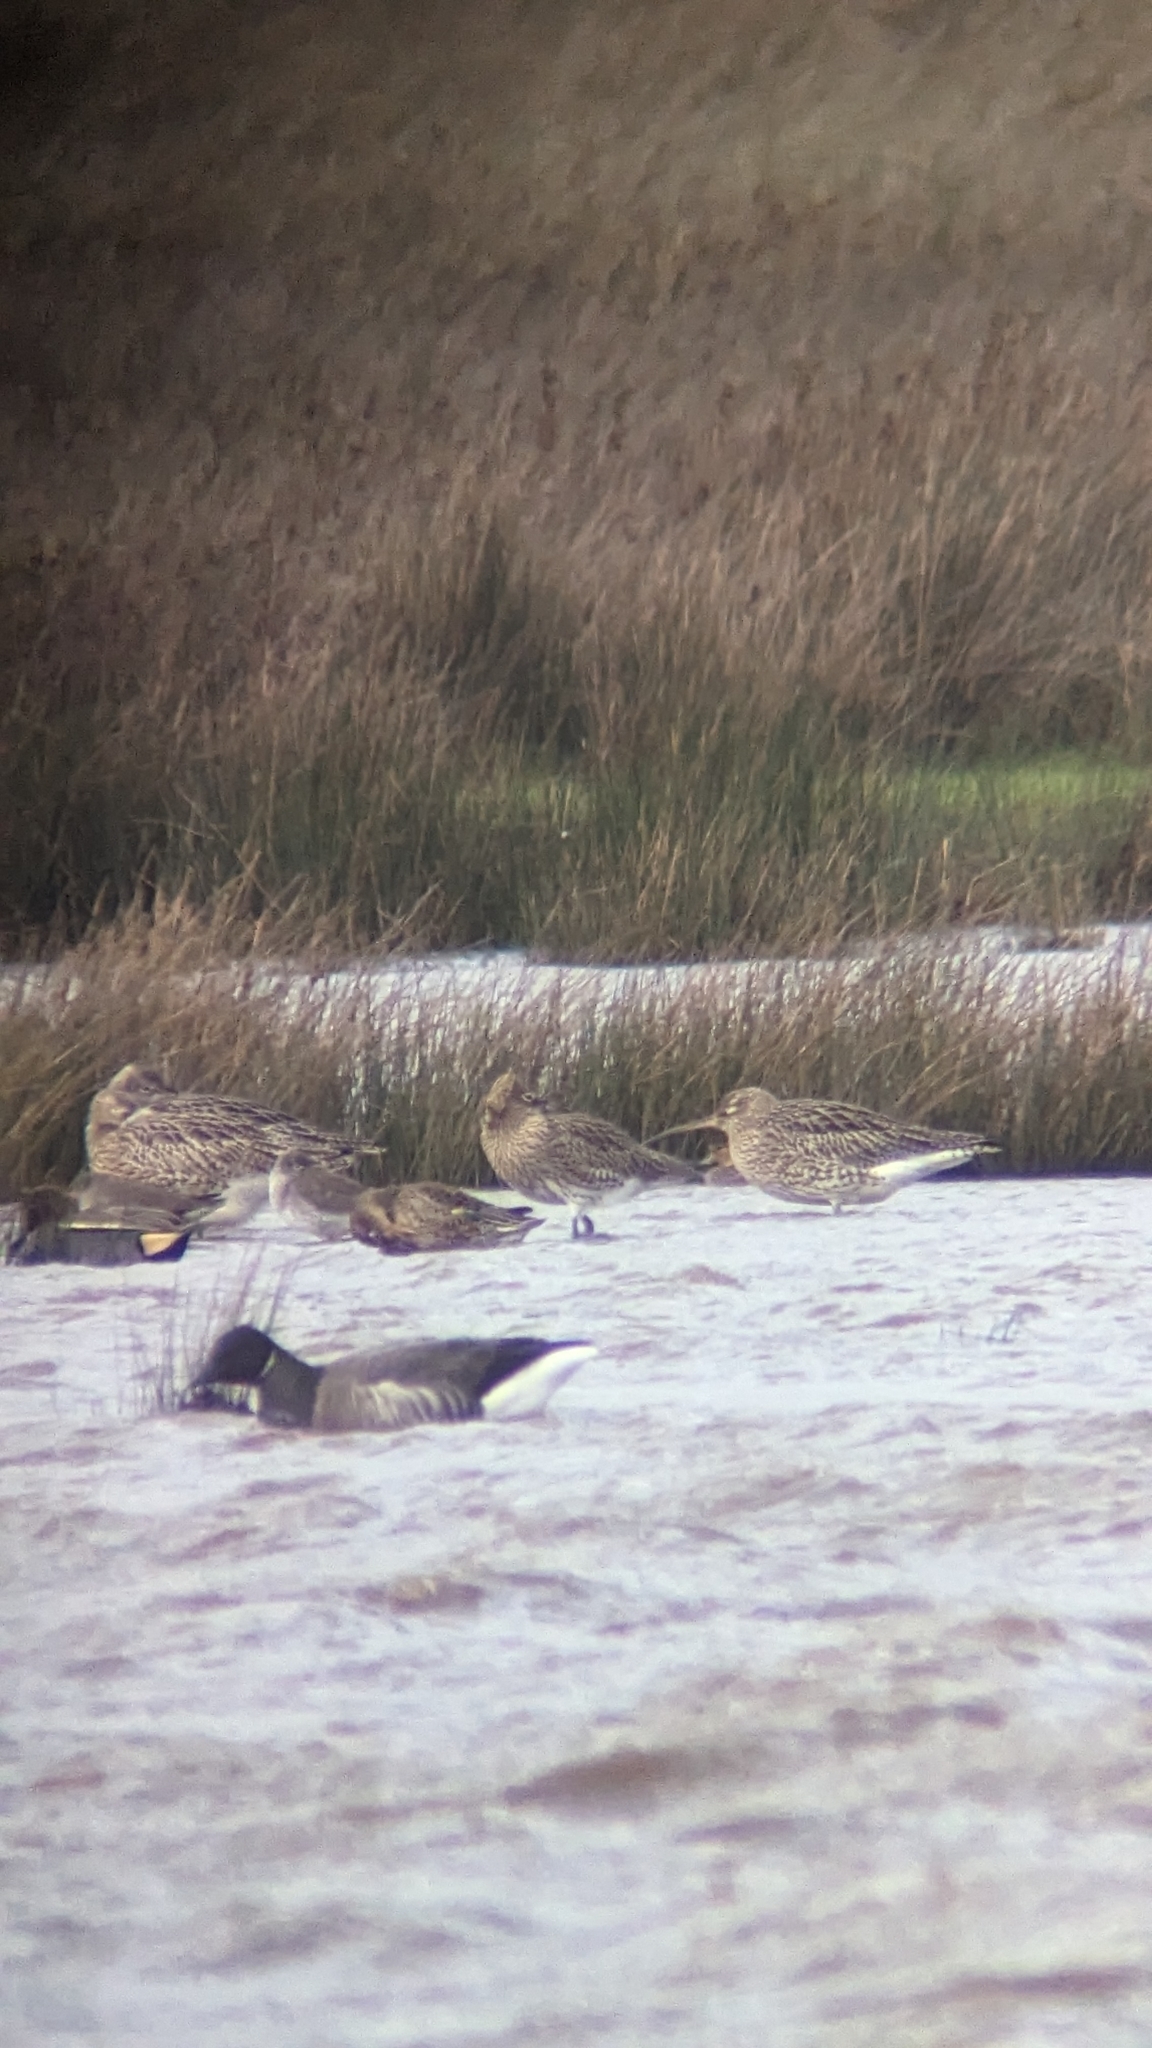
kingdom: Animalia
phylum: Chordata
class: Aves
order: Anseriformes
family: Anatidae
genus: Branta
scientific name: Branta bernicla
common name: Brant goose
